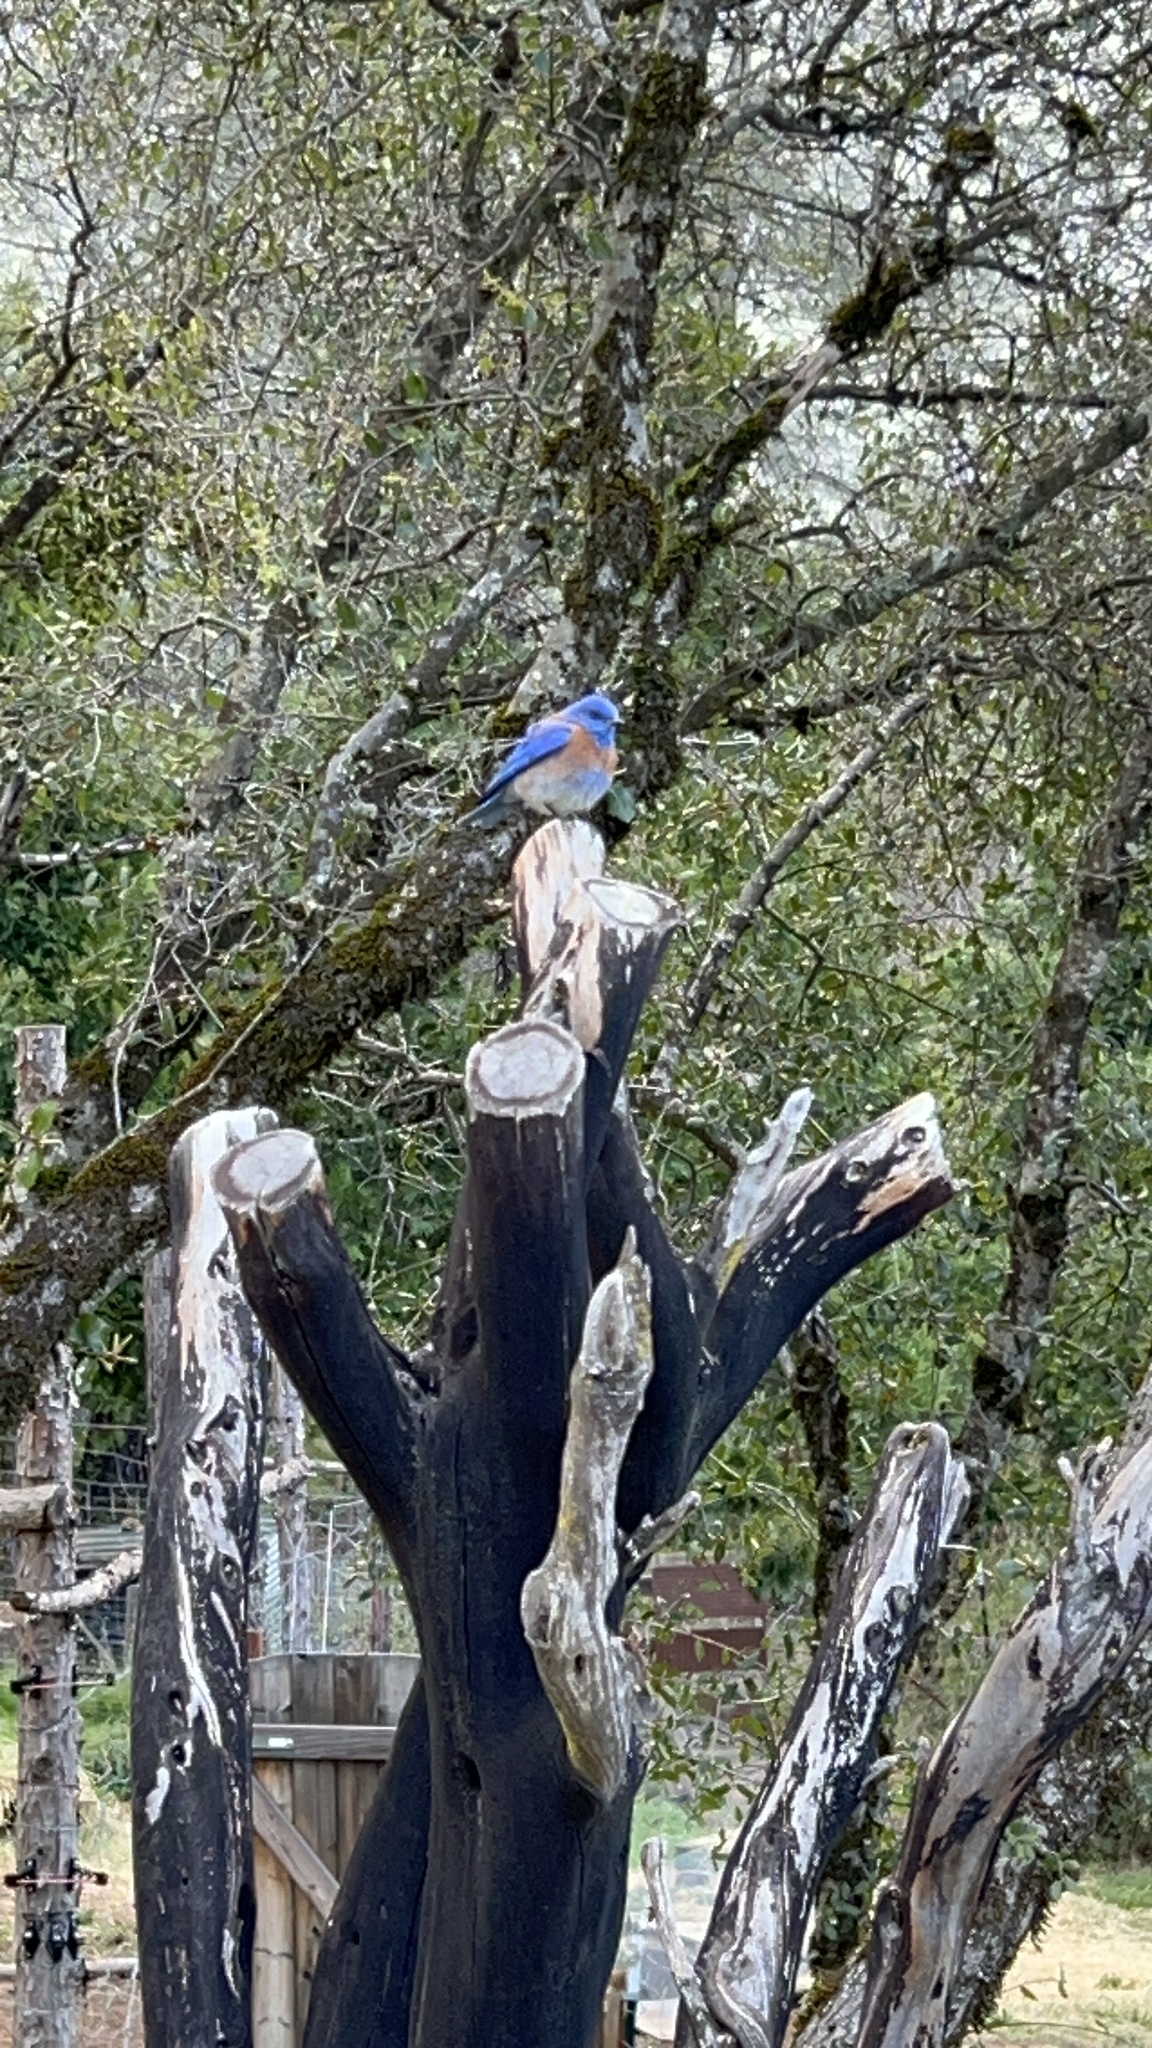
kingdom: Animalia
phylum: Chordata
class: Aves
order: Passeriformes
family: Turdidae
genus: Sialia
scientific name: Sialia mexicana
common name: Western bluebird
